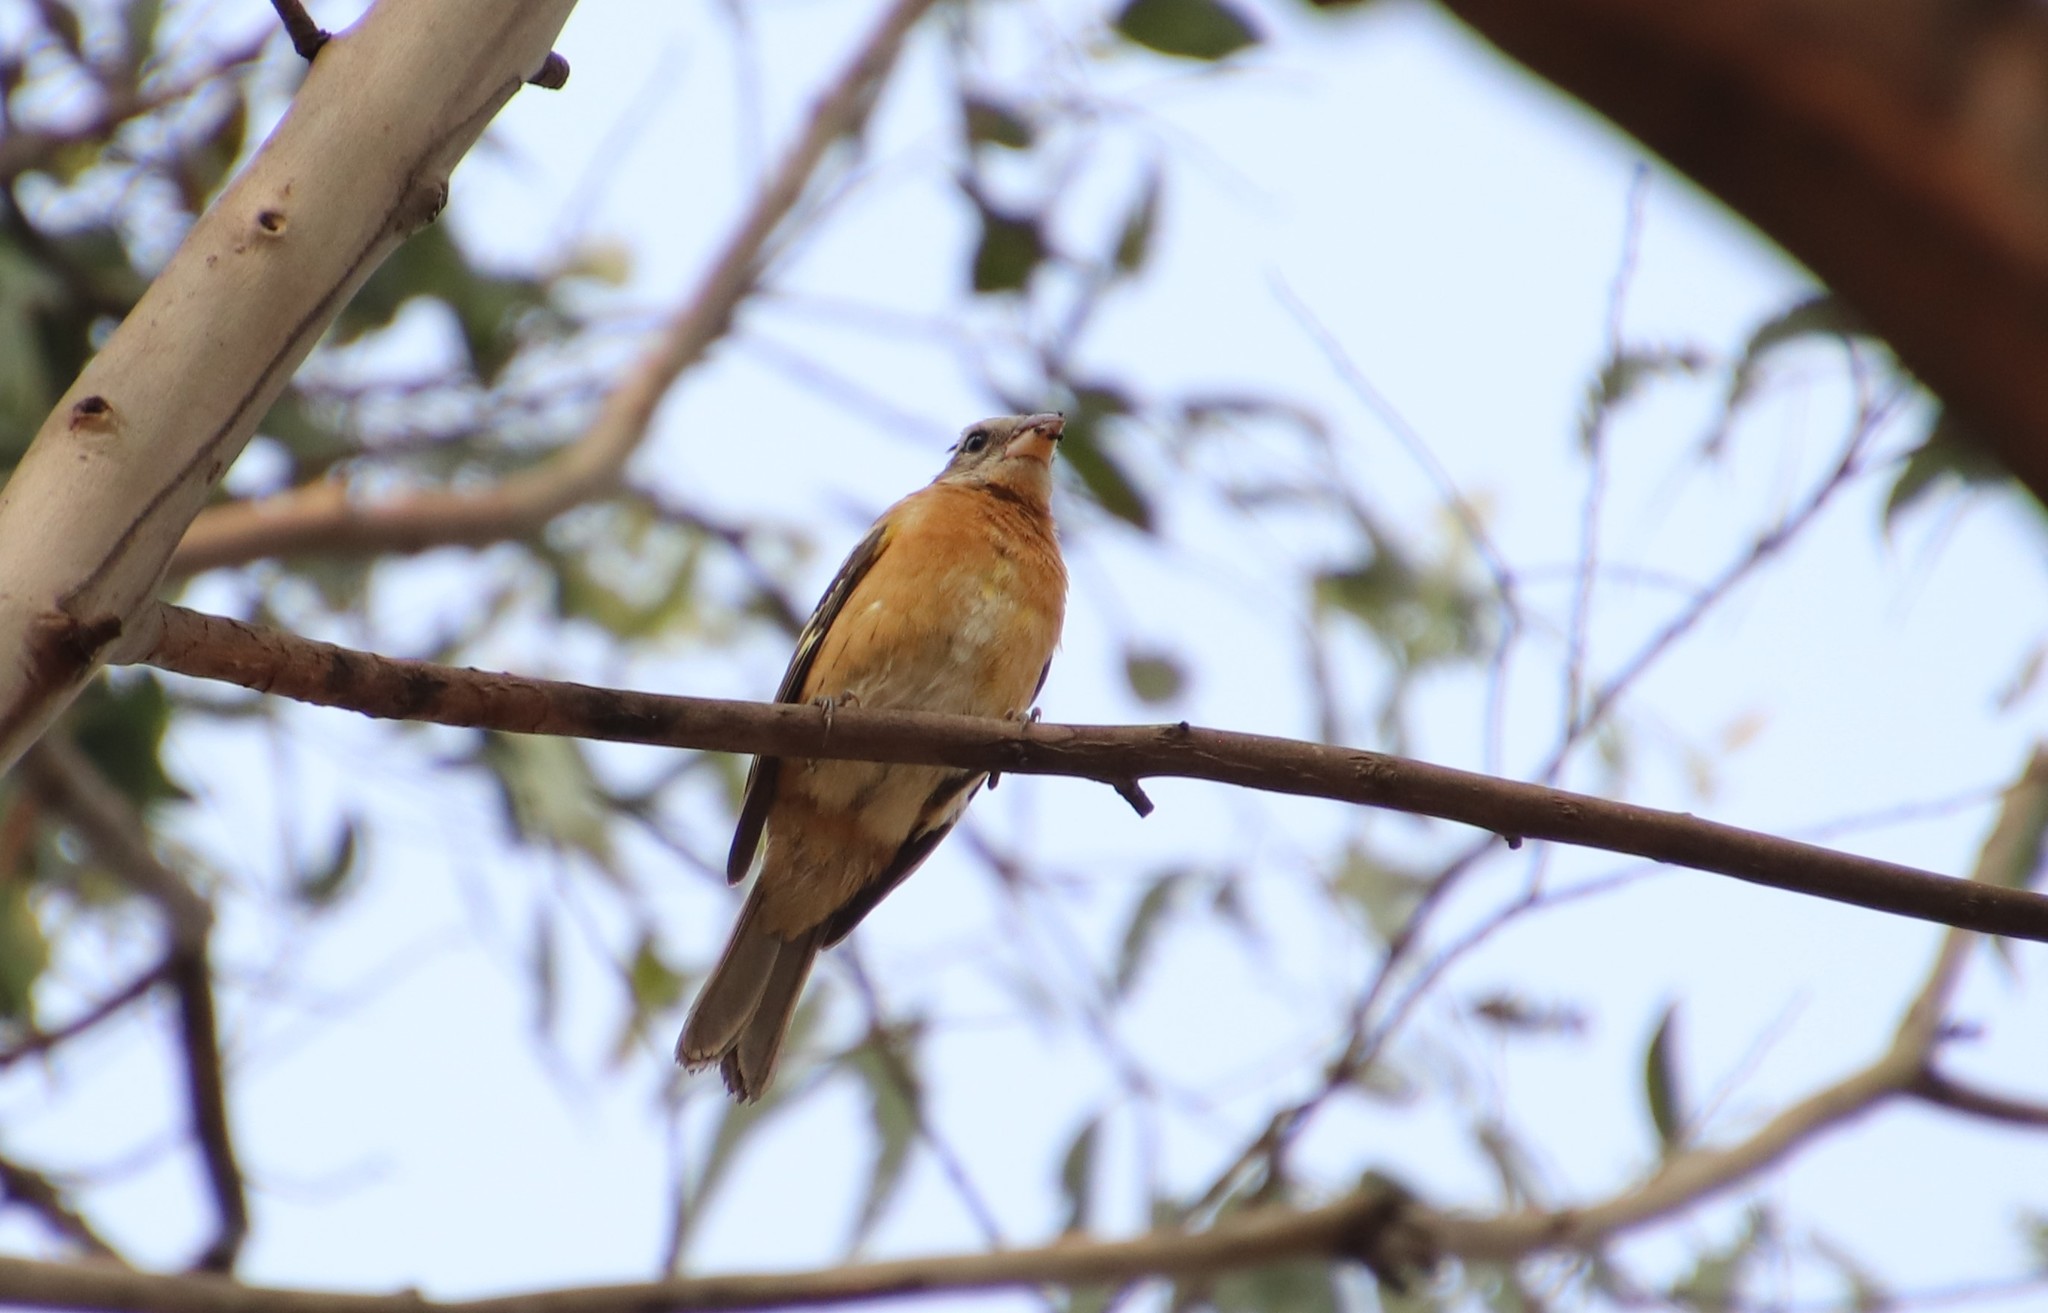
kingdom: Animalia
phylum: Chordata
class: Aves
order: Passeriformes
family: Cardinalidae
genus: Pheucticus
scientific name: Pheucticus melanocephalus
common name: Black-headed grosbeak
